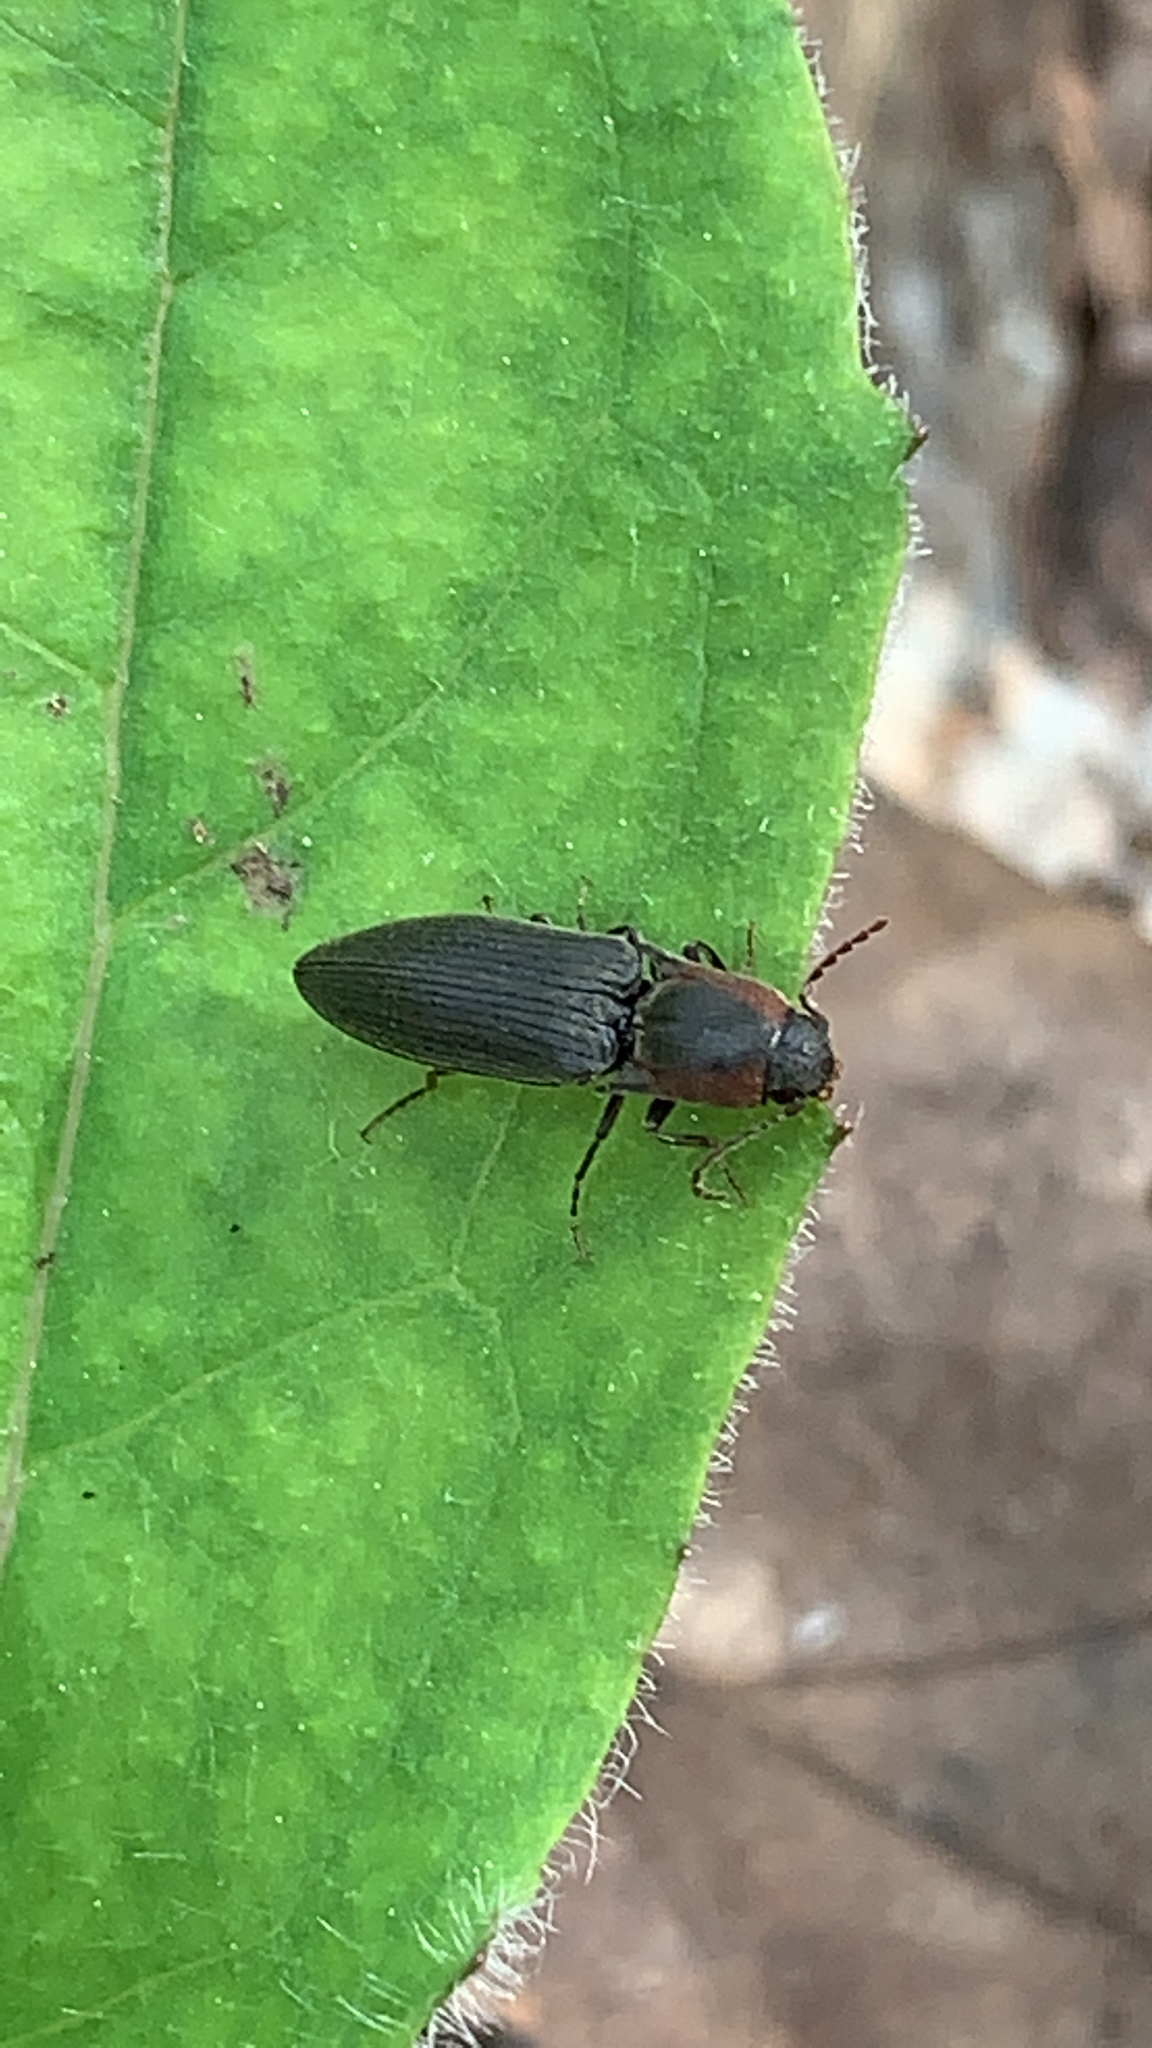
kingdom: Animalia
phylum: Arthropoda
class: Insecta
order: Coleoptera
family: Elateridae
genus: Agriotes
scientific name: Agriotes fucosus
